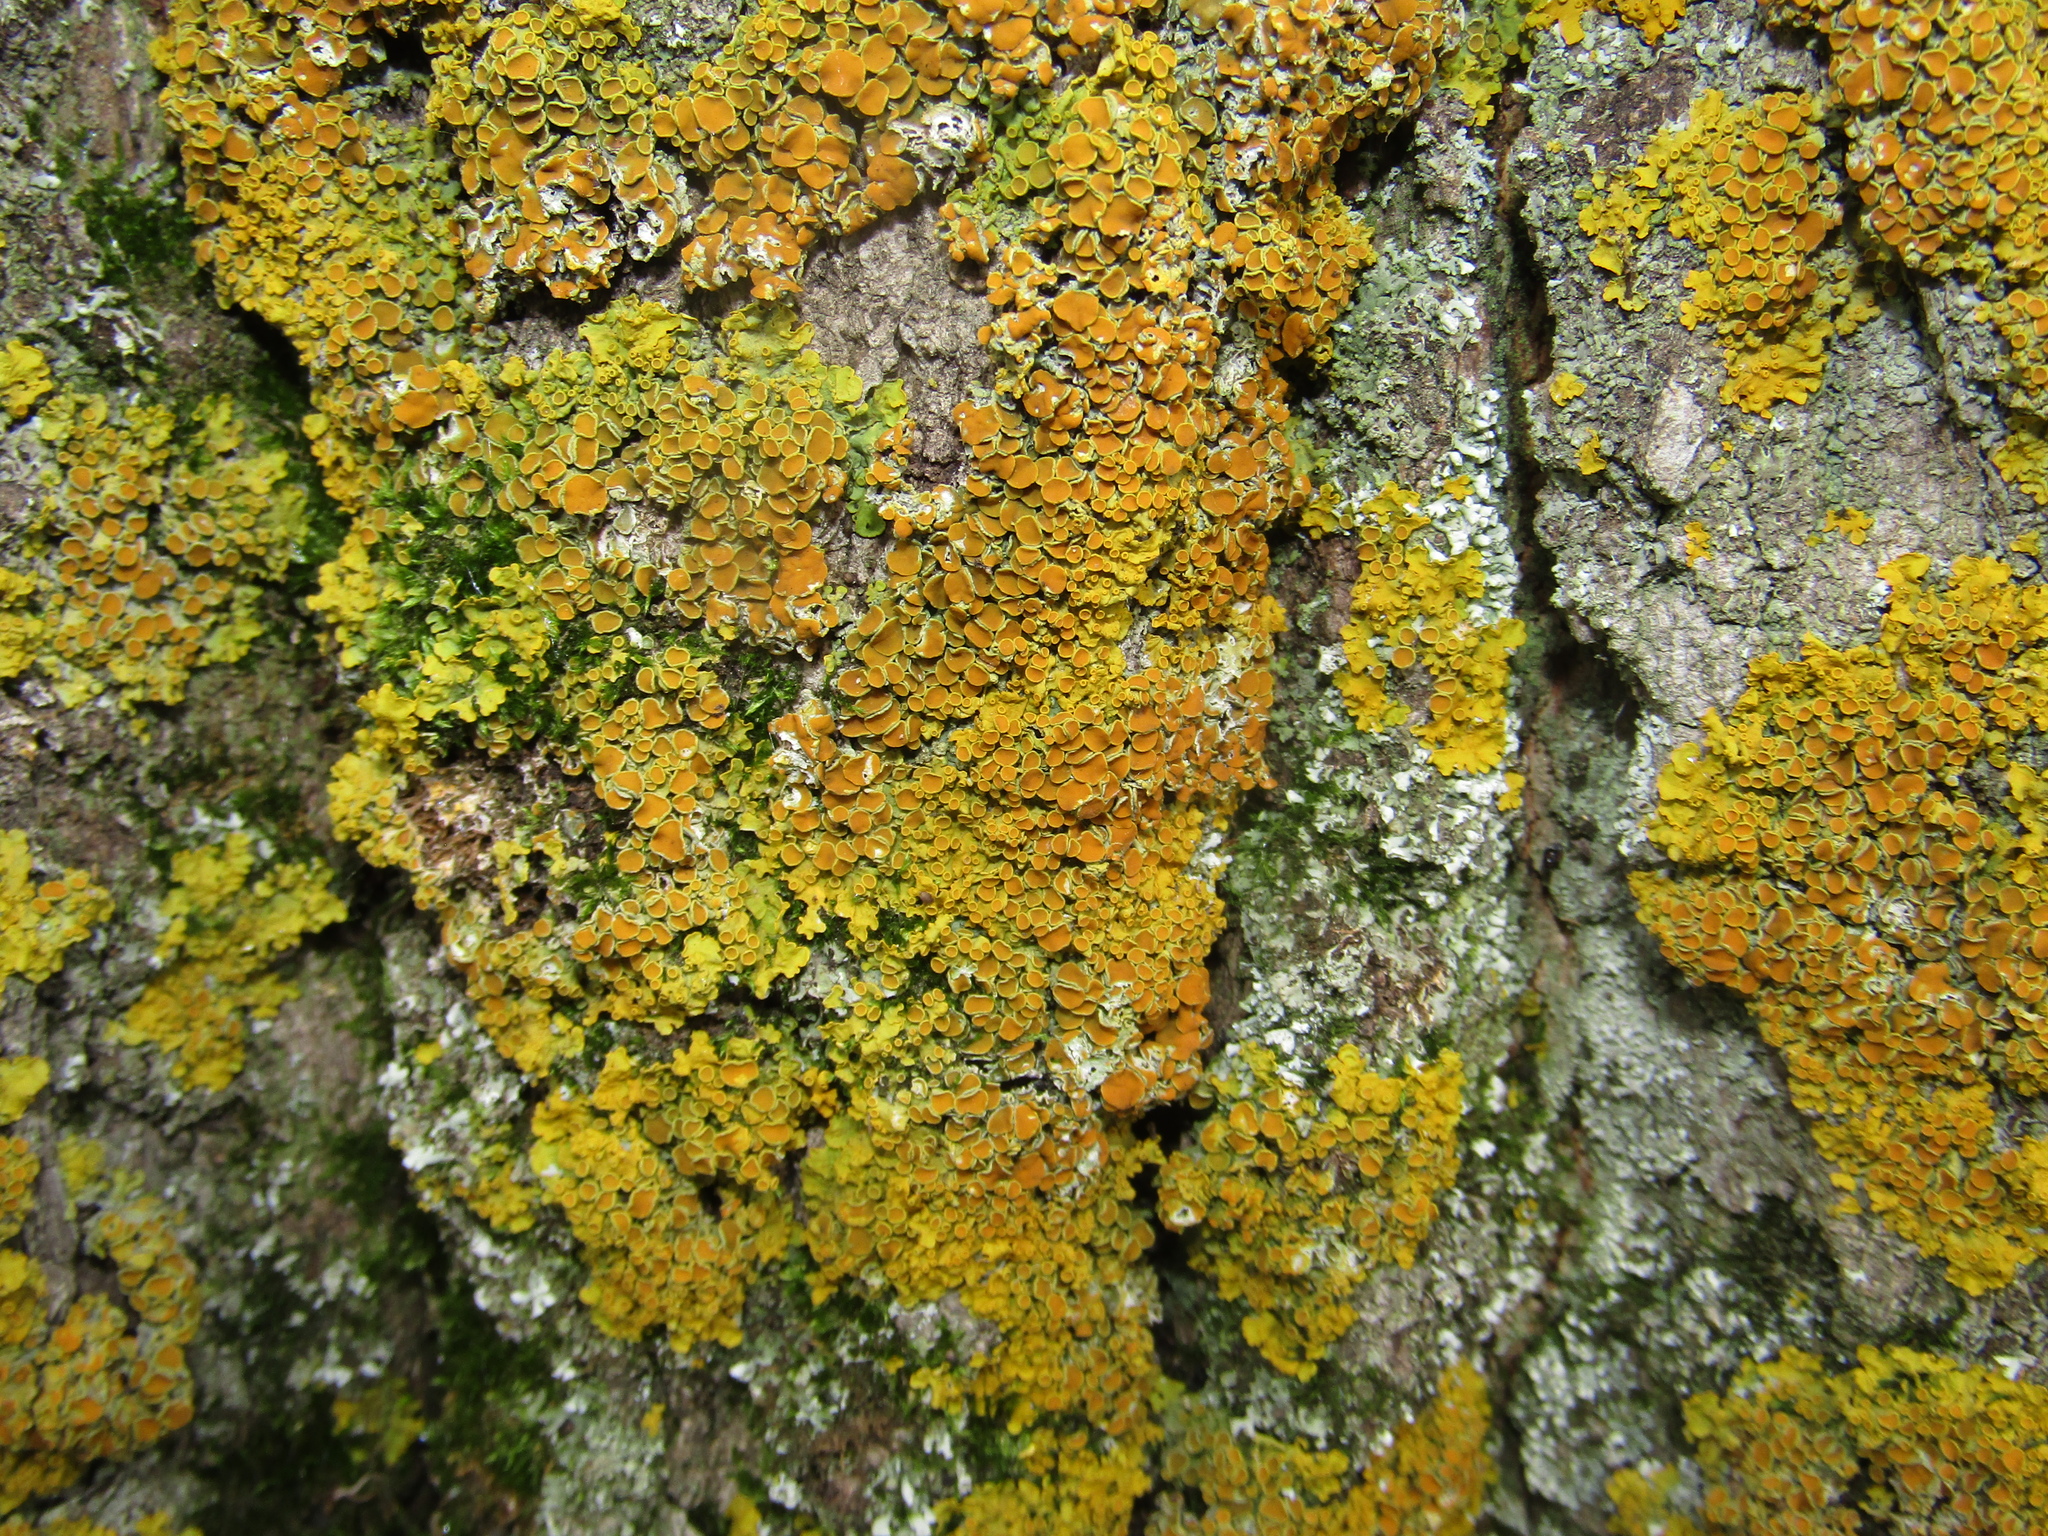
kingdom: Fungi
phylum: Ascomycota
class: Lecanoromycetes
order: Teloschistales
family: Teloschistaceae
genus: Xanthoria
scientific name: Xanthoria parietina
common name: Common orange lichen
